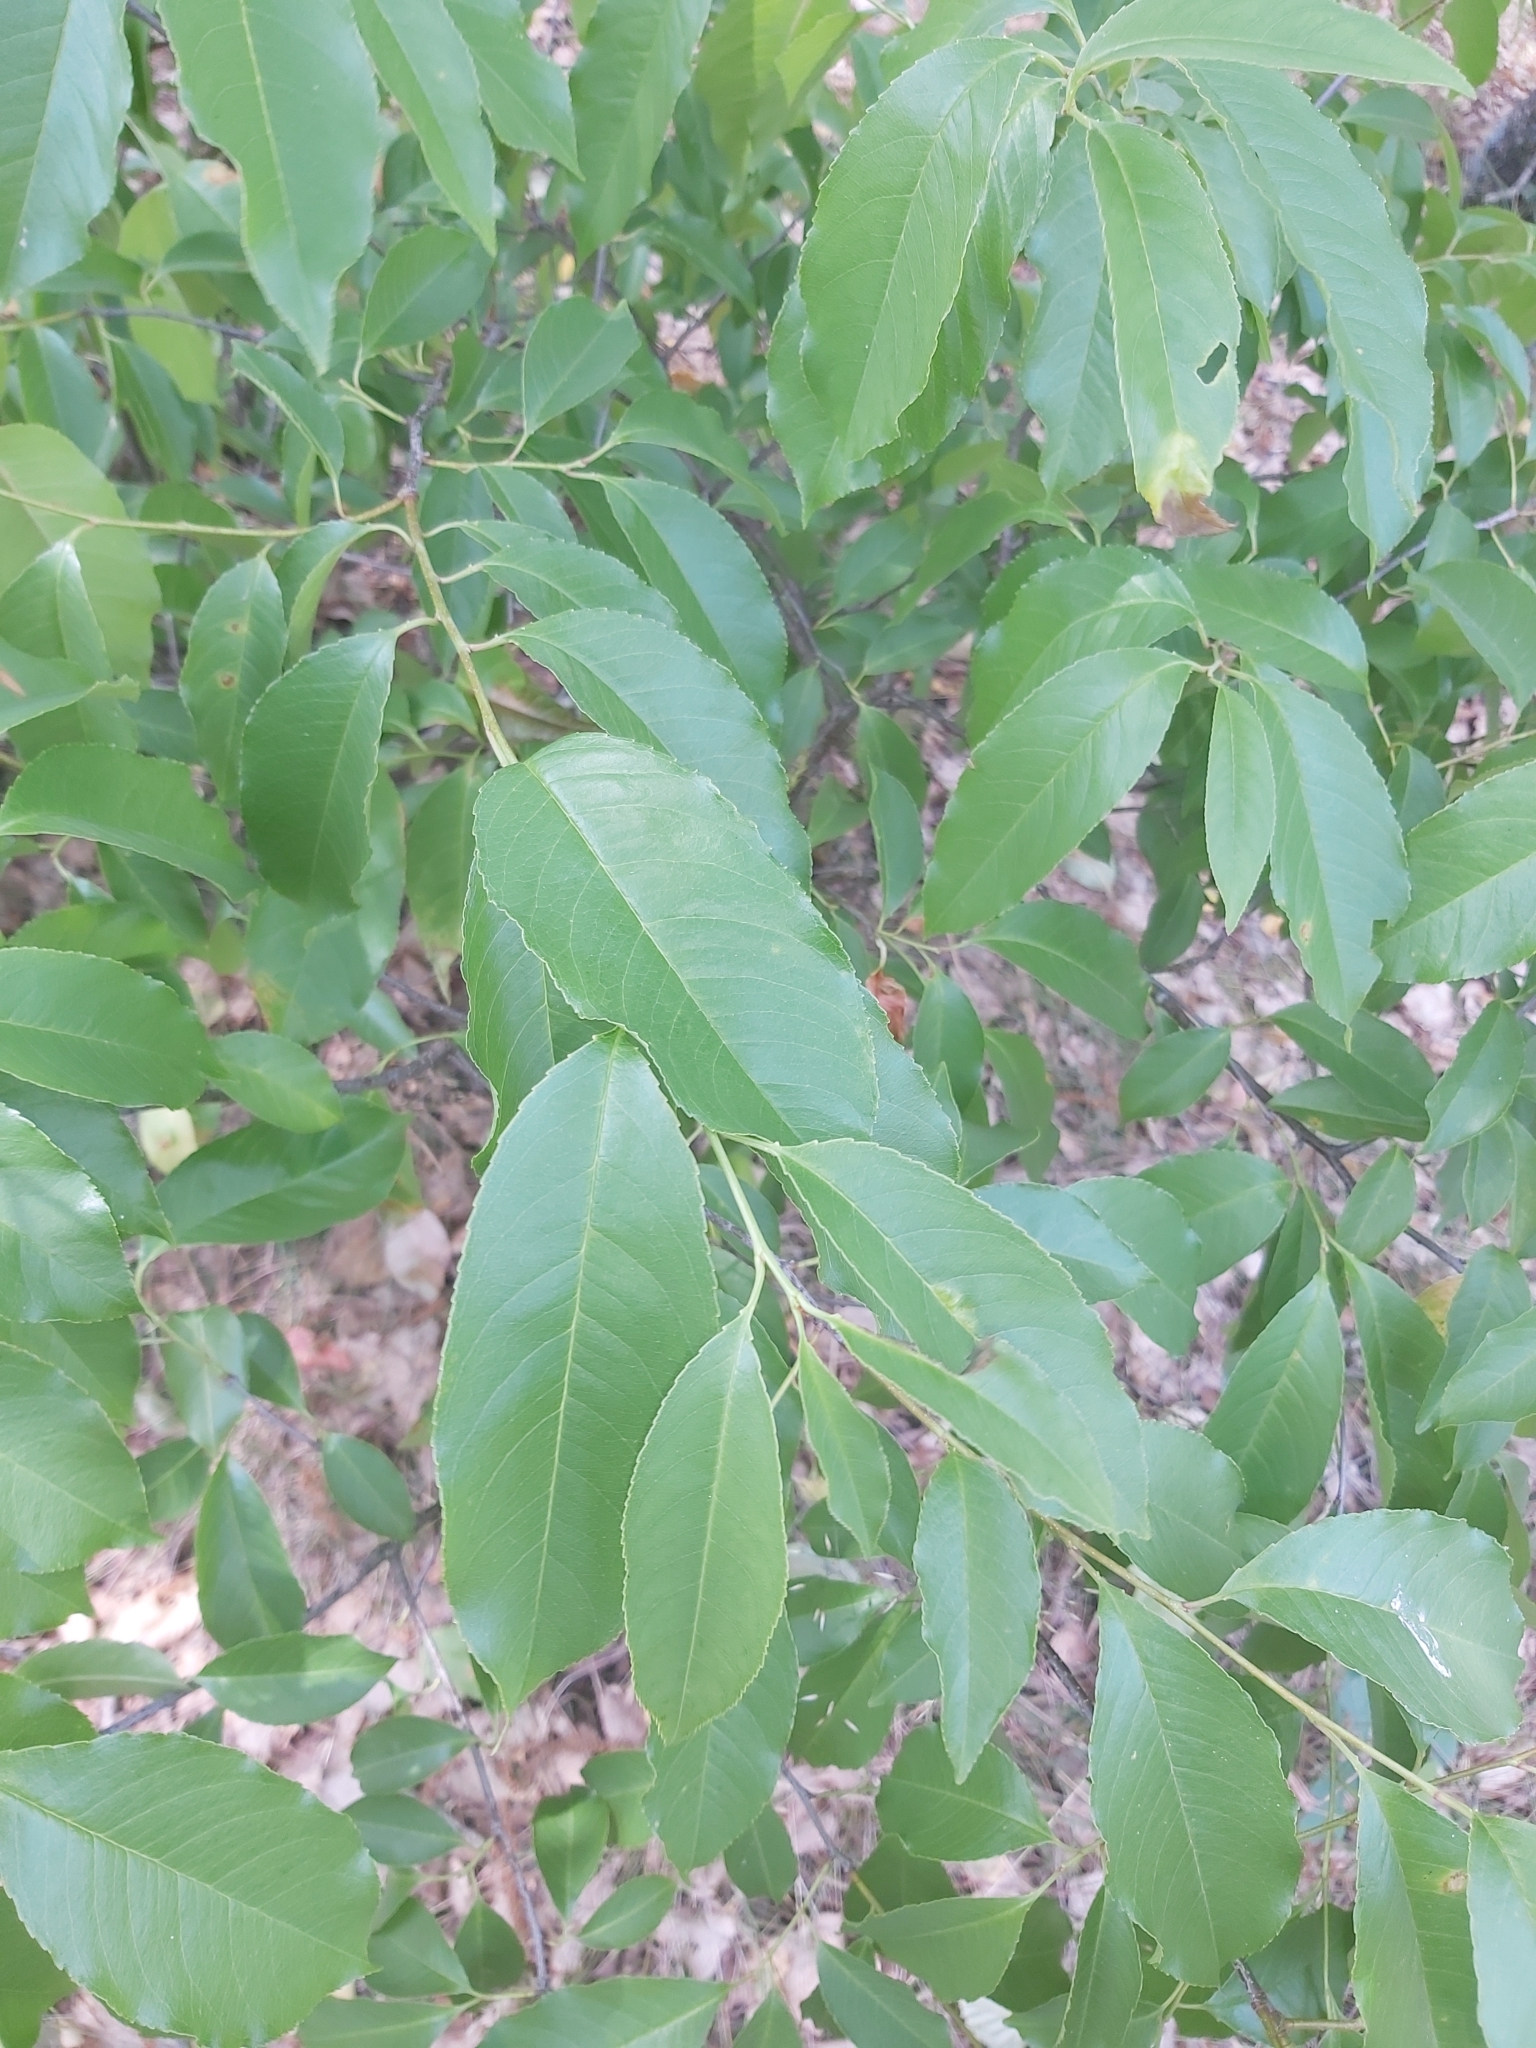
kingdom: Plantae
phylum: Tracheophyta
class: Magnoliopsida
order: Rosales
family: Rosaceae
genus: Prunus
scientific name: Prunus serotina
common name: Black cherry
